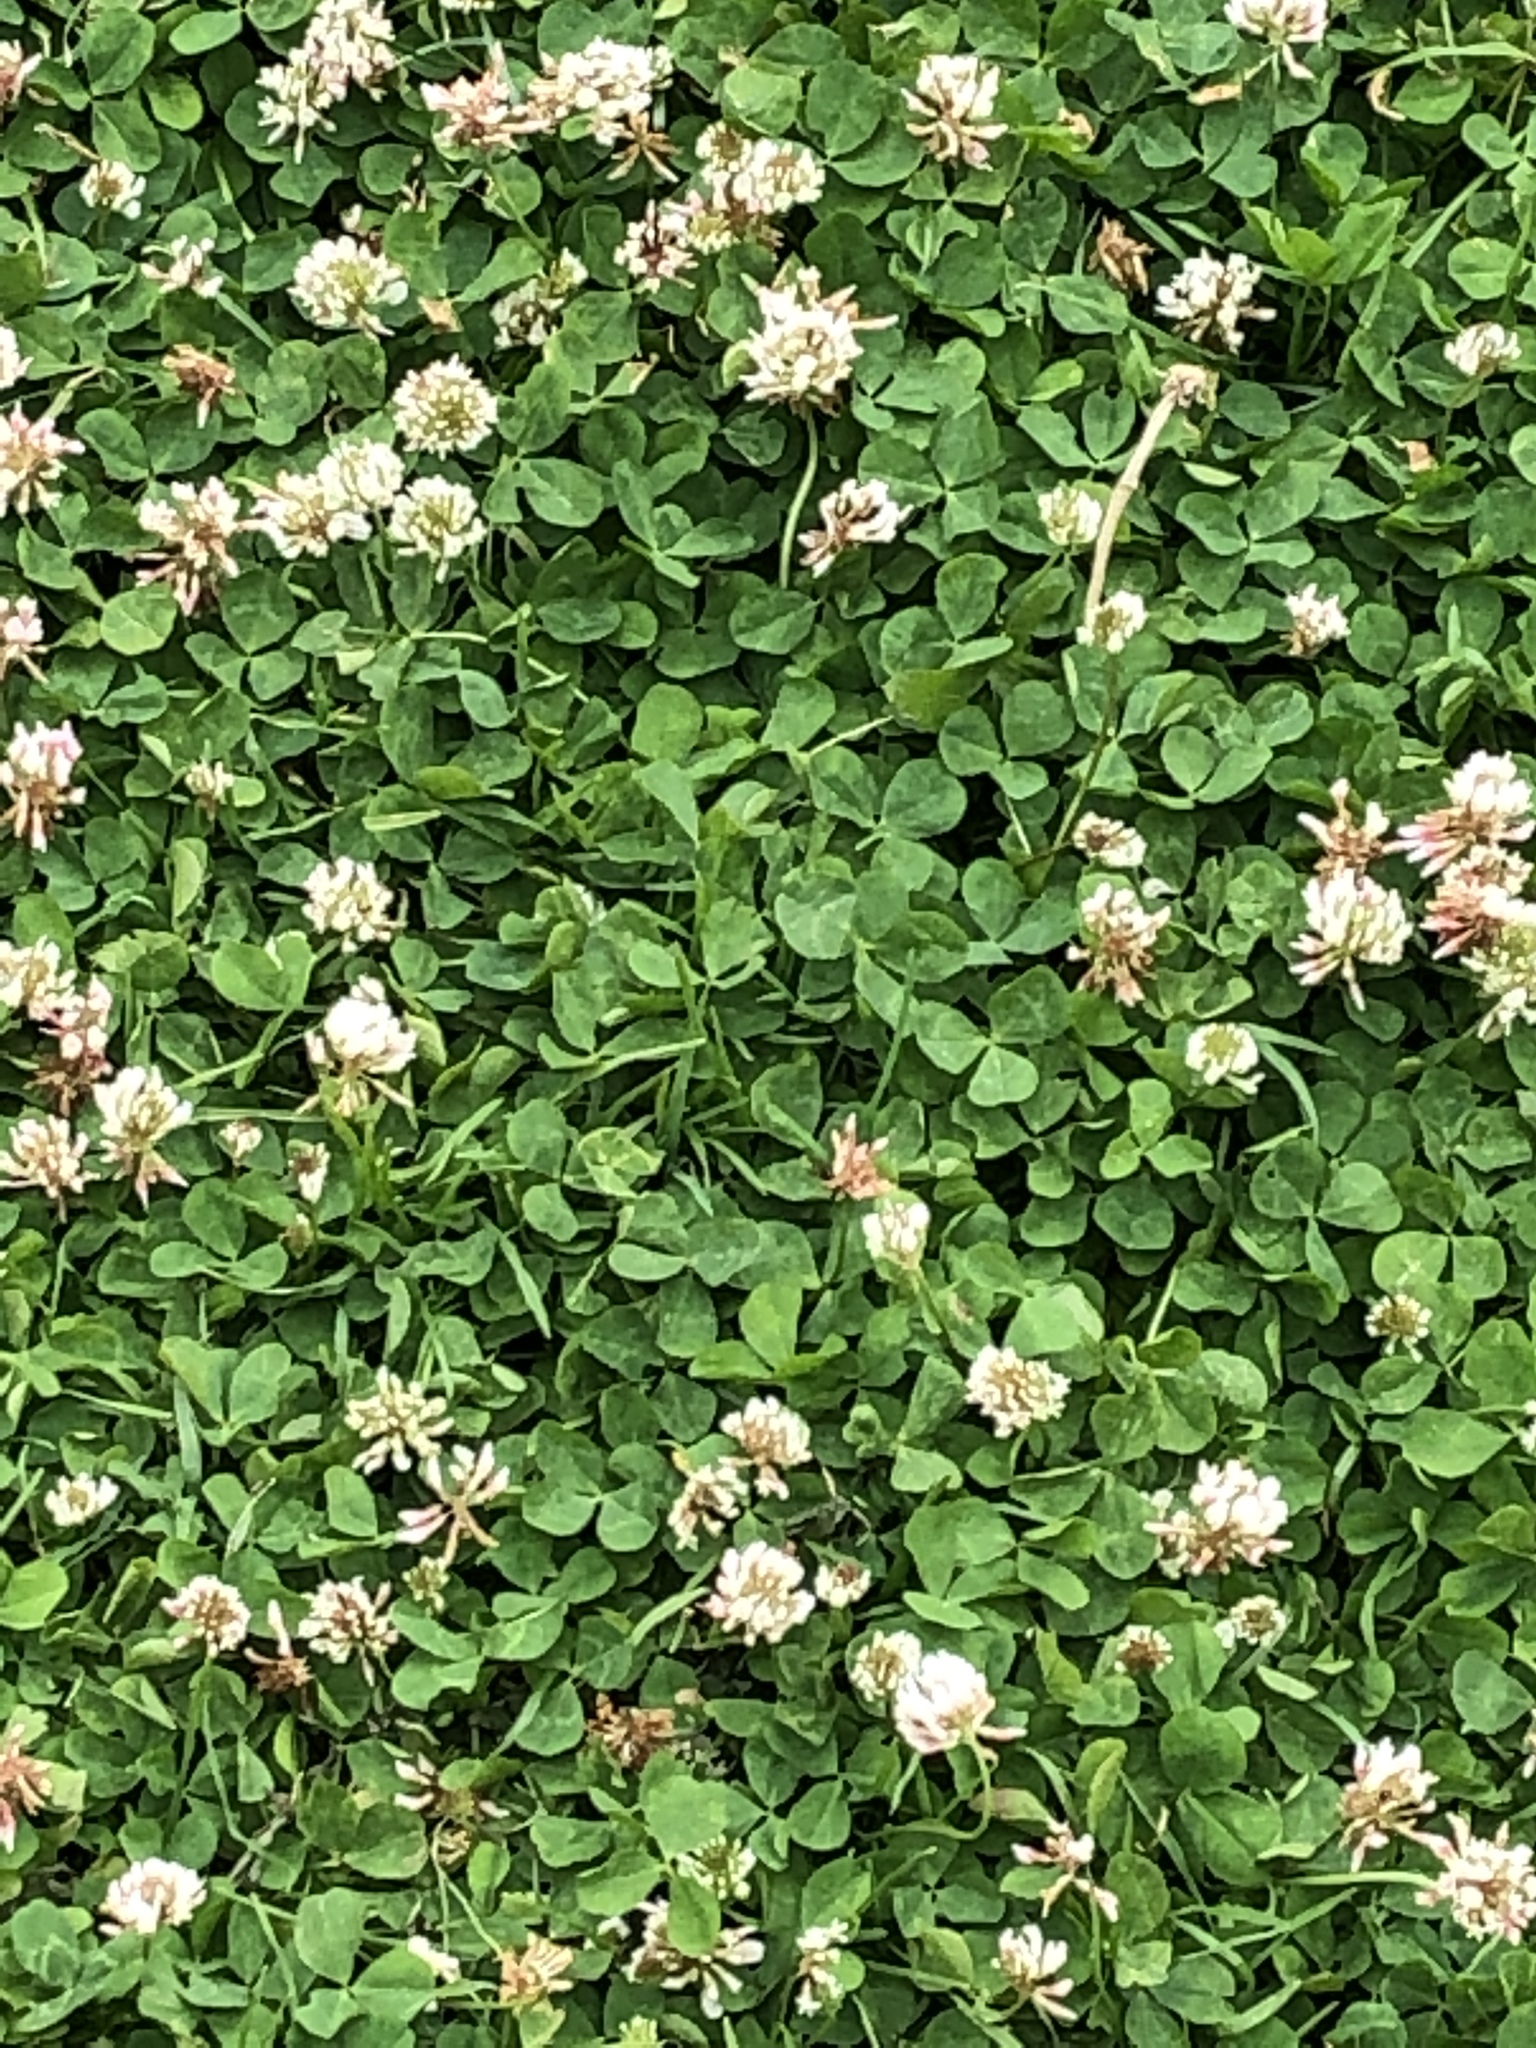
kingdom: Plantae
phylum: Tracheophyta
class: Magnoliopsida
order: Fabales
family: Fabaceae
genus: Trifolium
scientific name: Trifolium repens
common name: White clover
